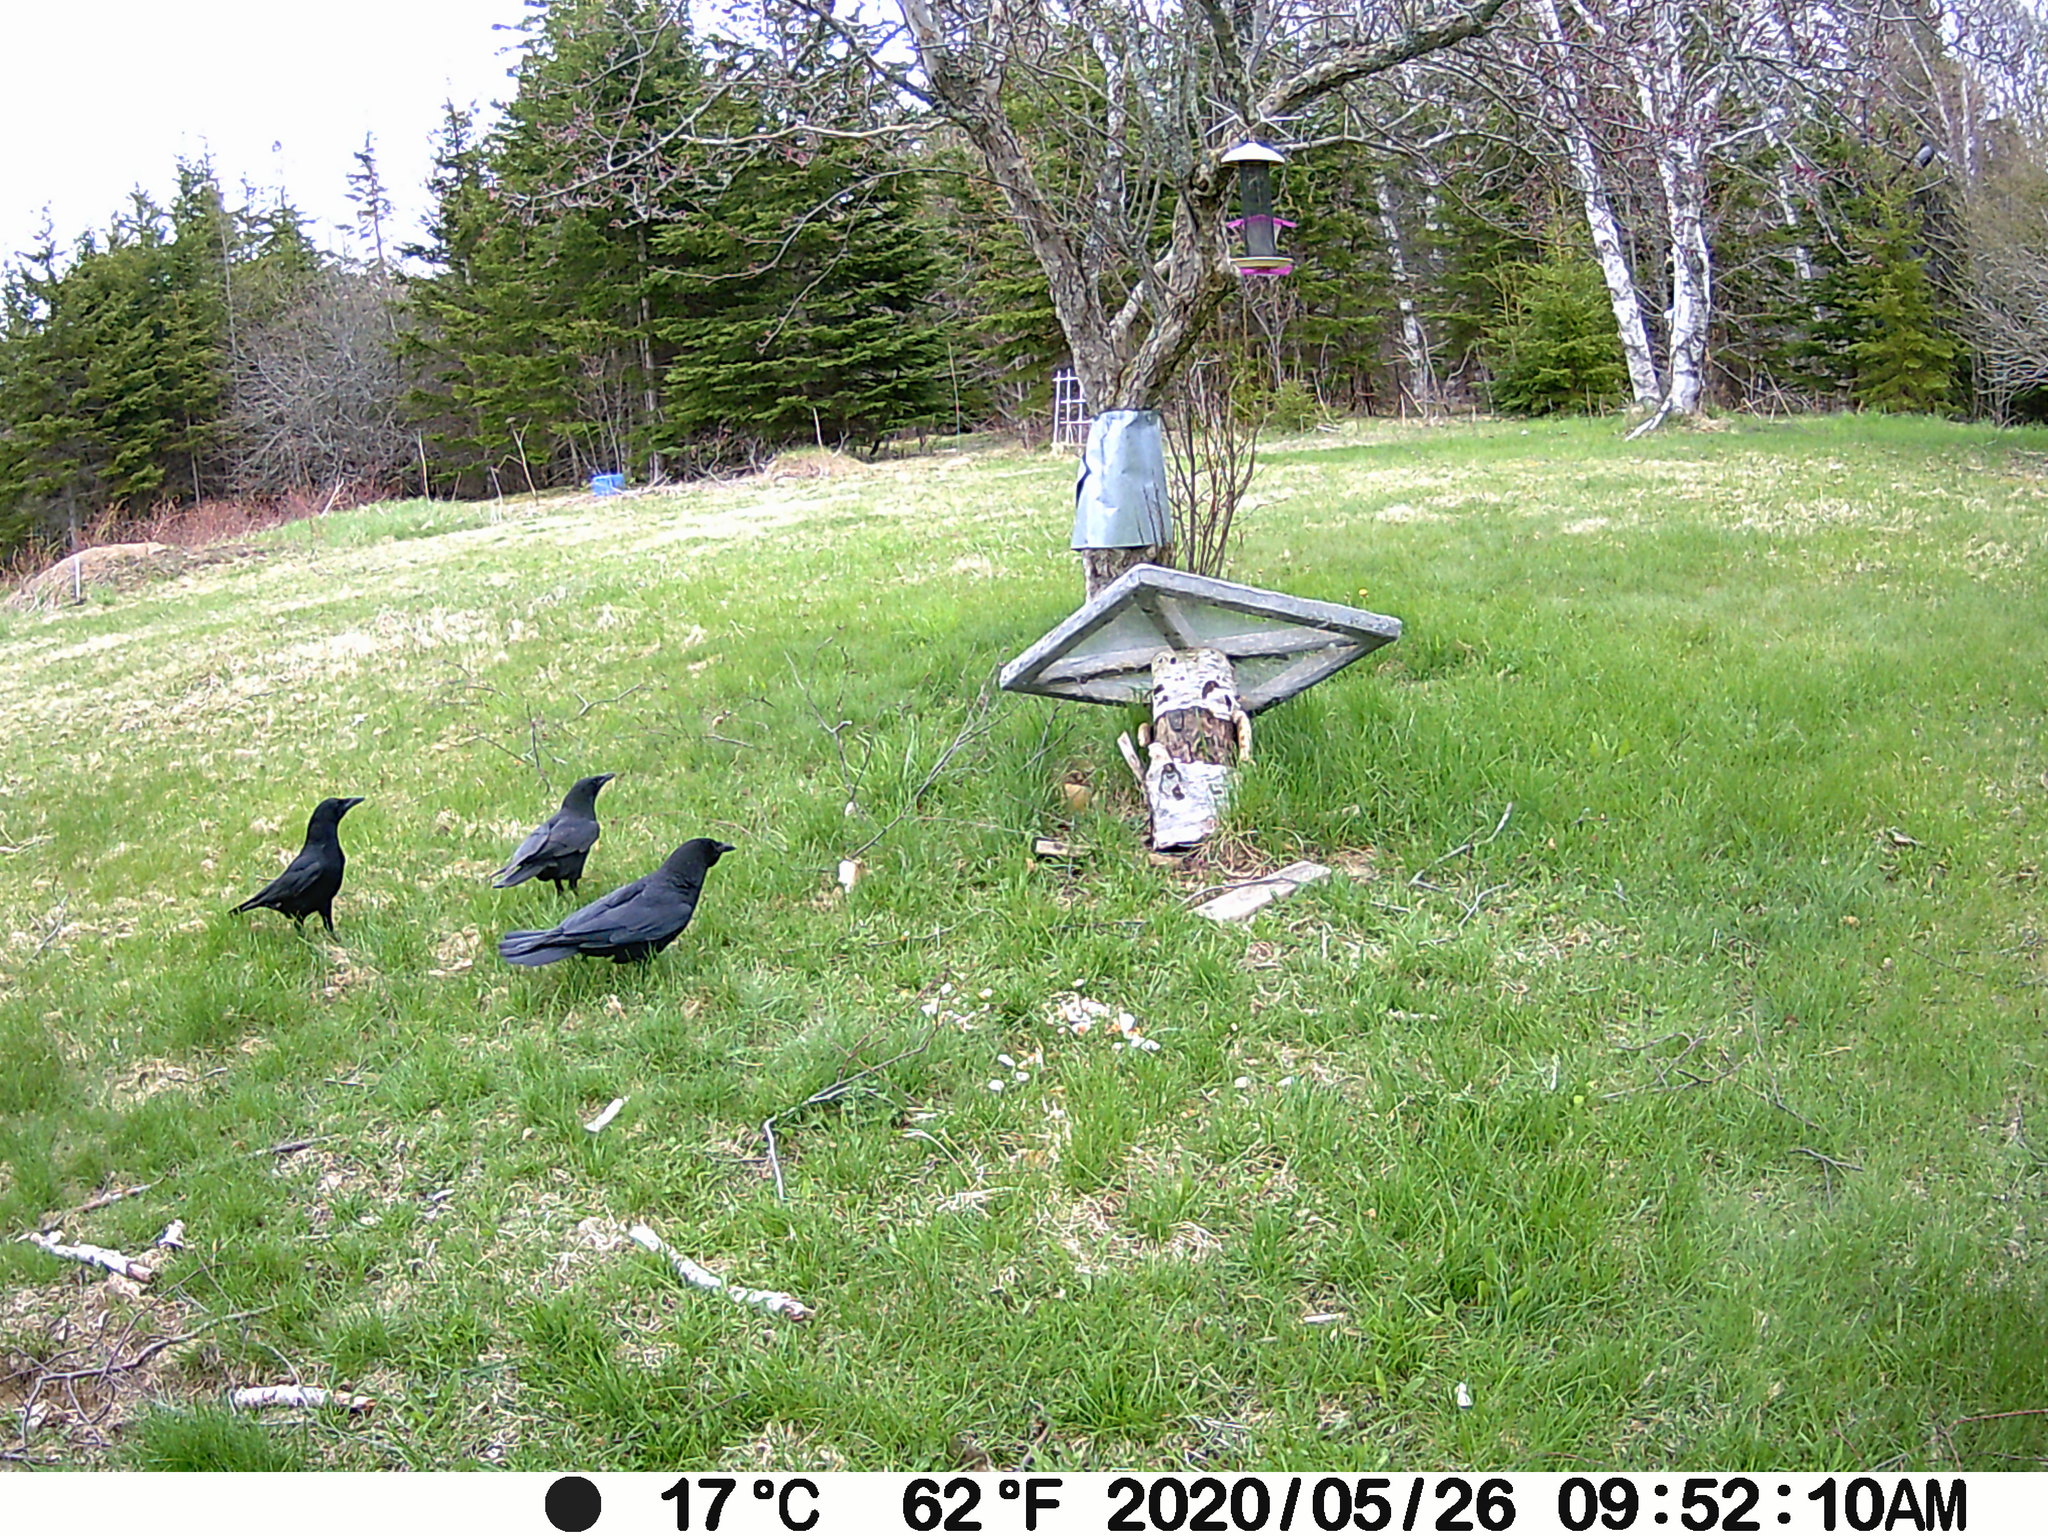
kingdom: Animalia
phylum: Chordata
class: Aves
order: Passeriformes
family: Corvidae
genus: Corvus
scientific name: Corvus brachyrhynchos
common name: American crow
